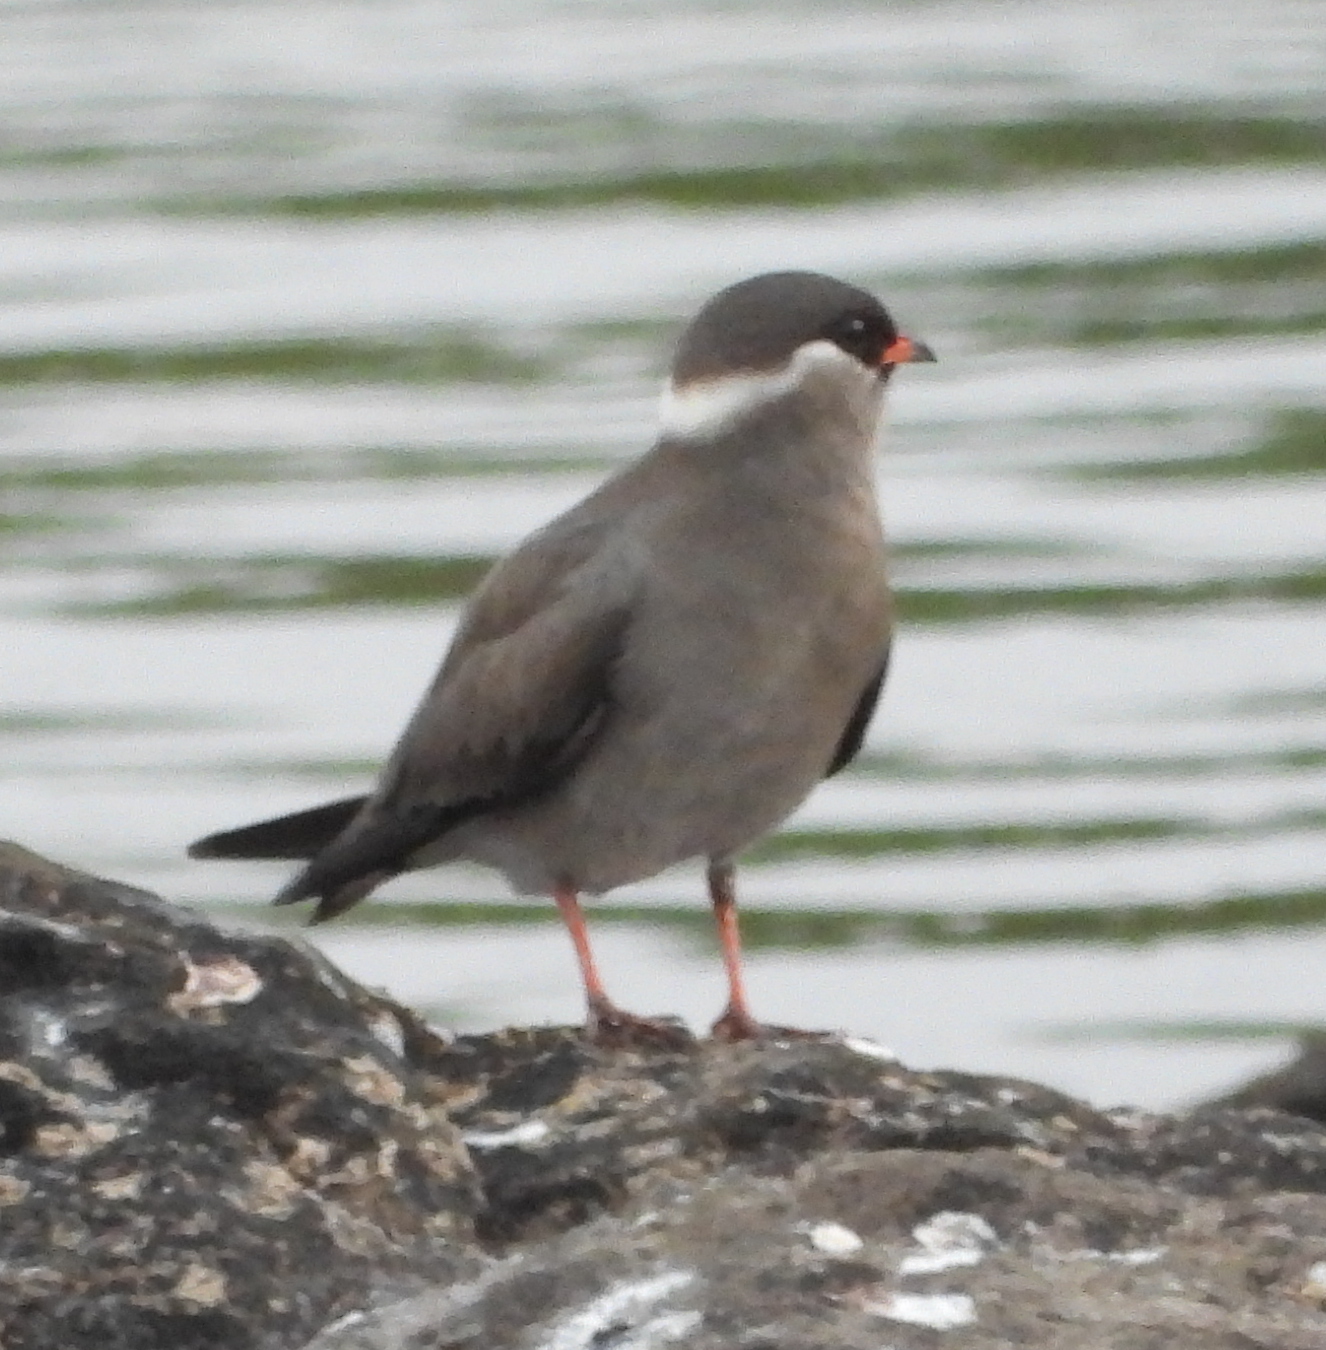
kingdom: Animalia
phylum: Chordata
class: Aves
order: Charadriiformes
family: Glareolidae
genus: Glareola
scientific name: Glareola nuchalis
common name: Rock pratincole
